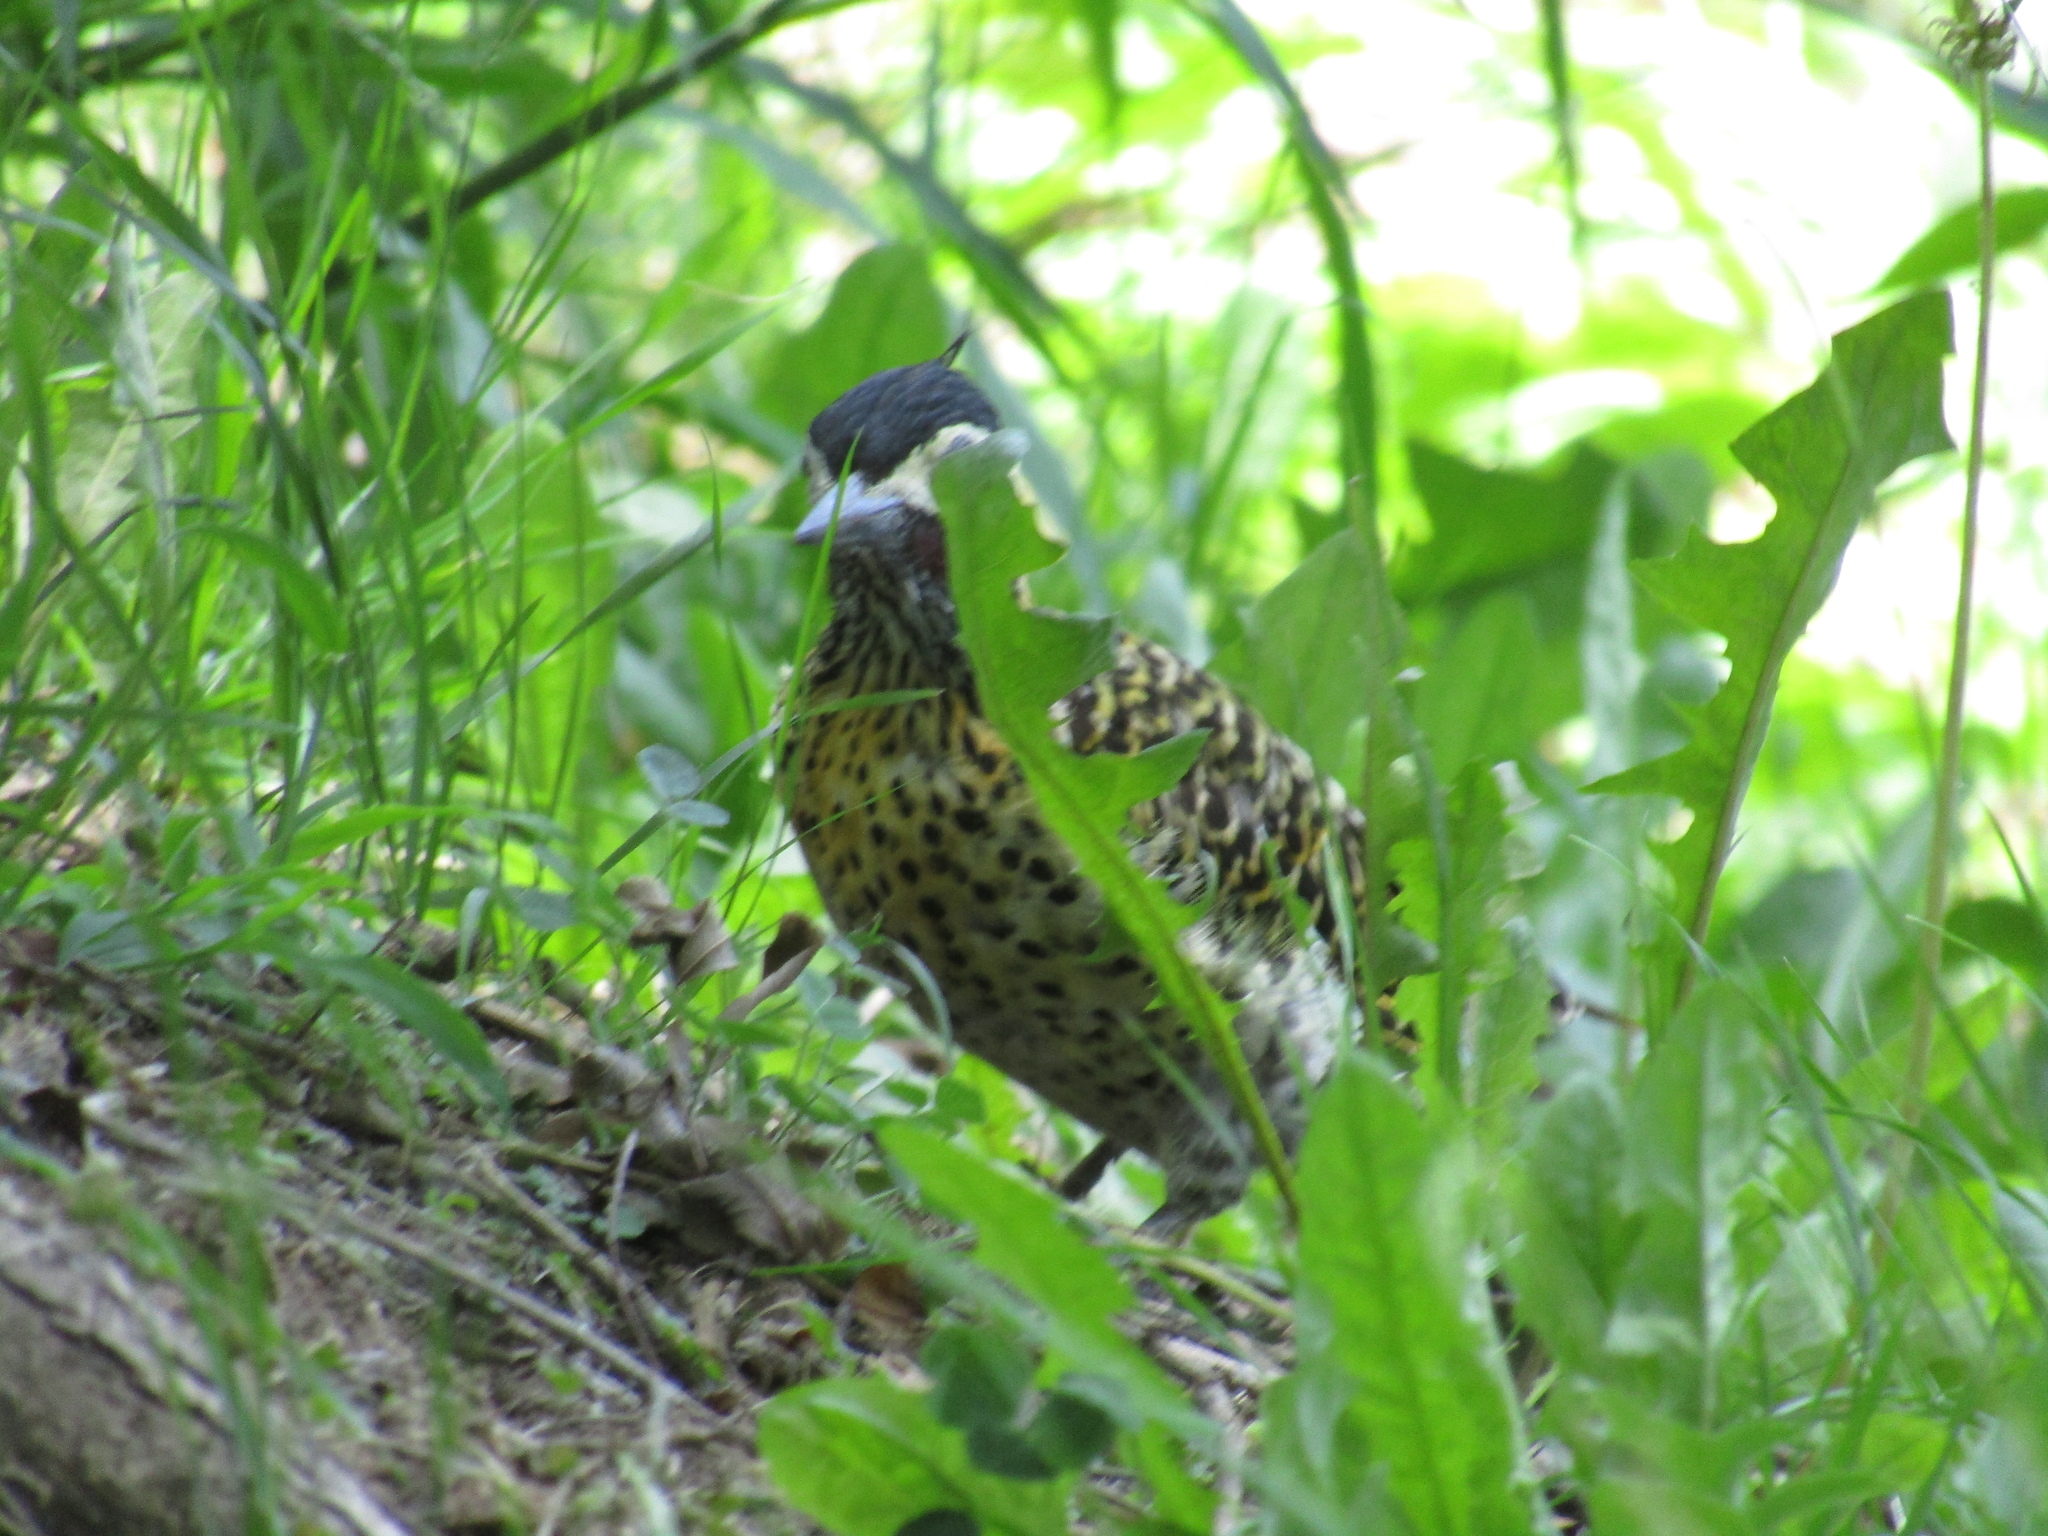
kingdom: Animalia
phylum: Chordata
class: Aves
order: Piciformes
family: Picidae
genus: Colaptes
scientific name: Colaptes melanochloros
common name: Green-barred woodpecker
